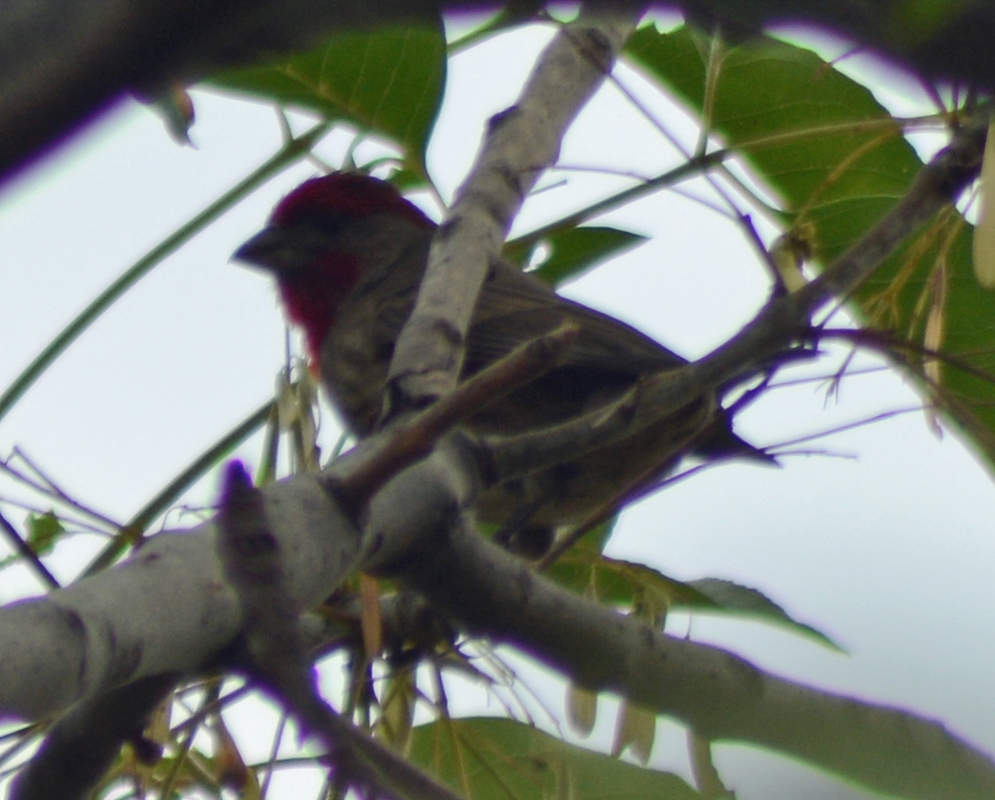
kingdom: Animalia
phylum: Chordata
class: Aves
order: Passeriformes
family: Fringillidae
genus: Haemorhous
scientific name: Haemorhous mexicanus
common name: House finch
